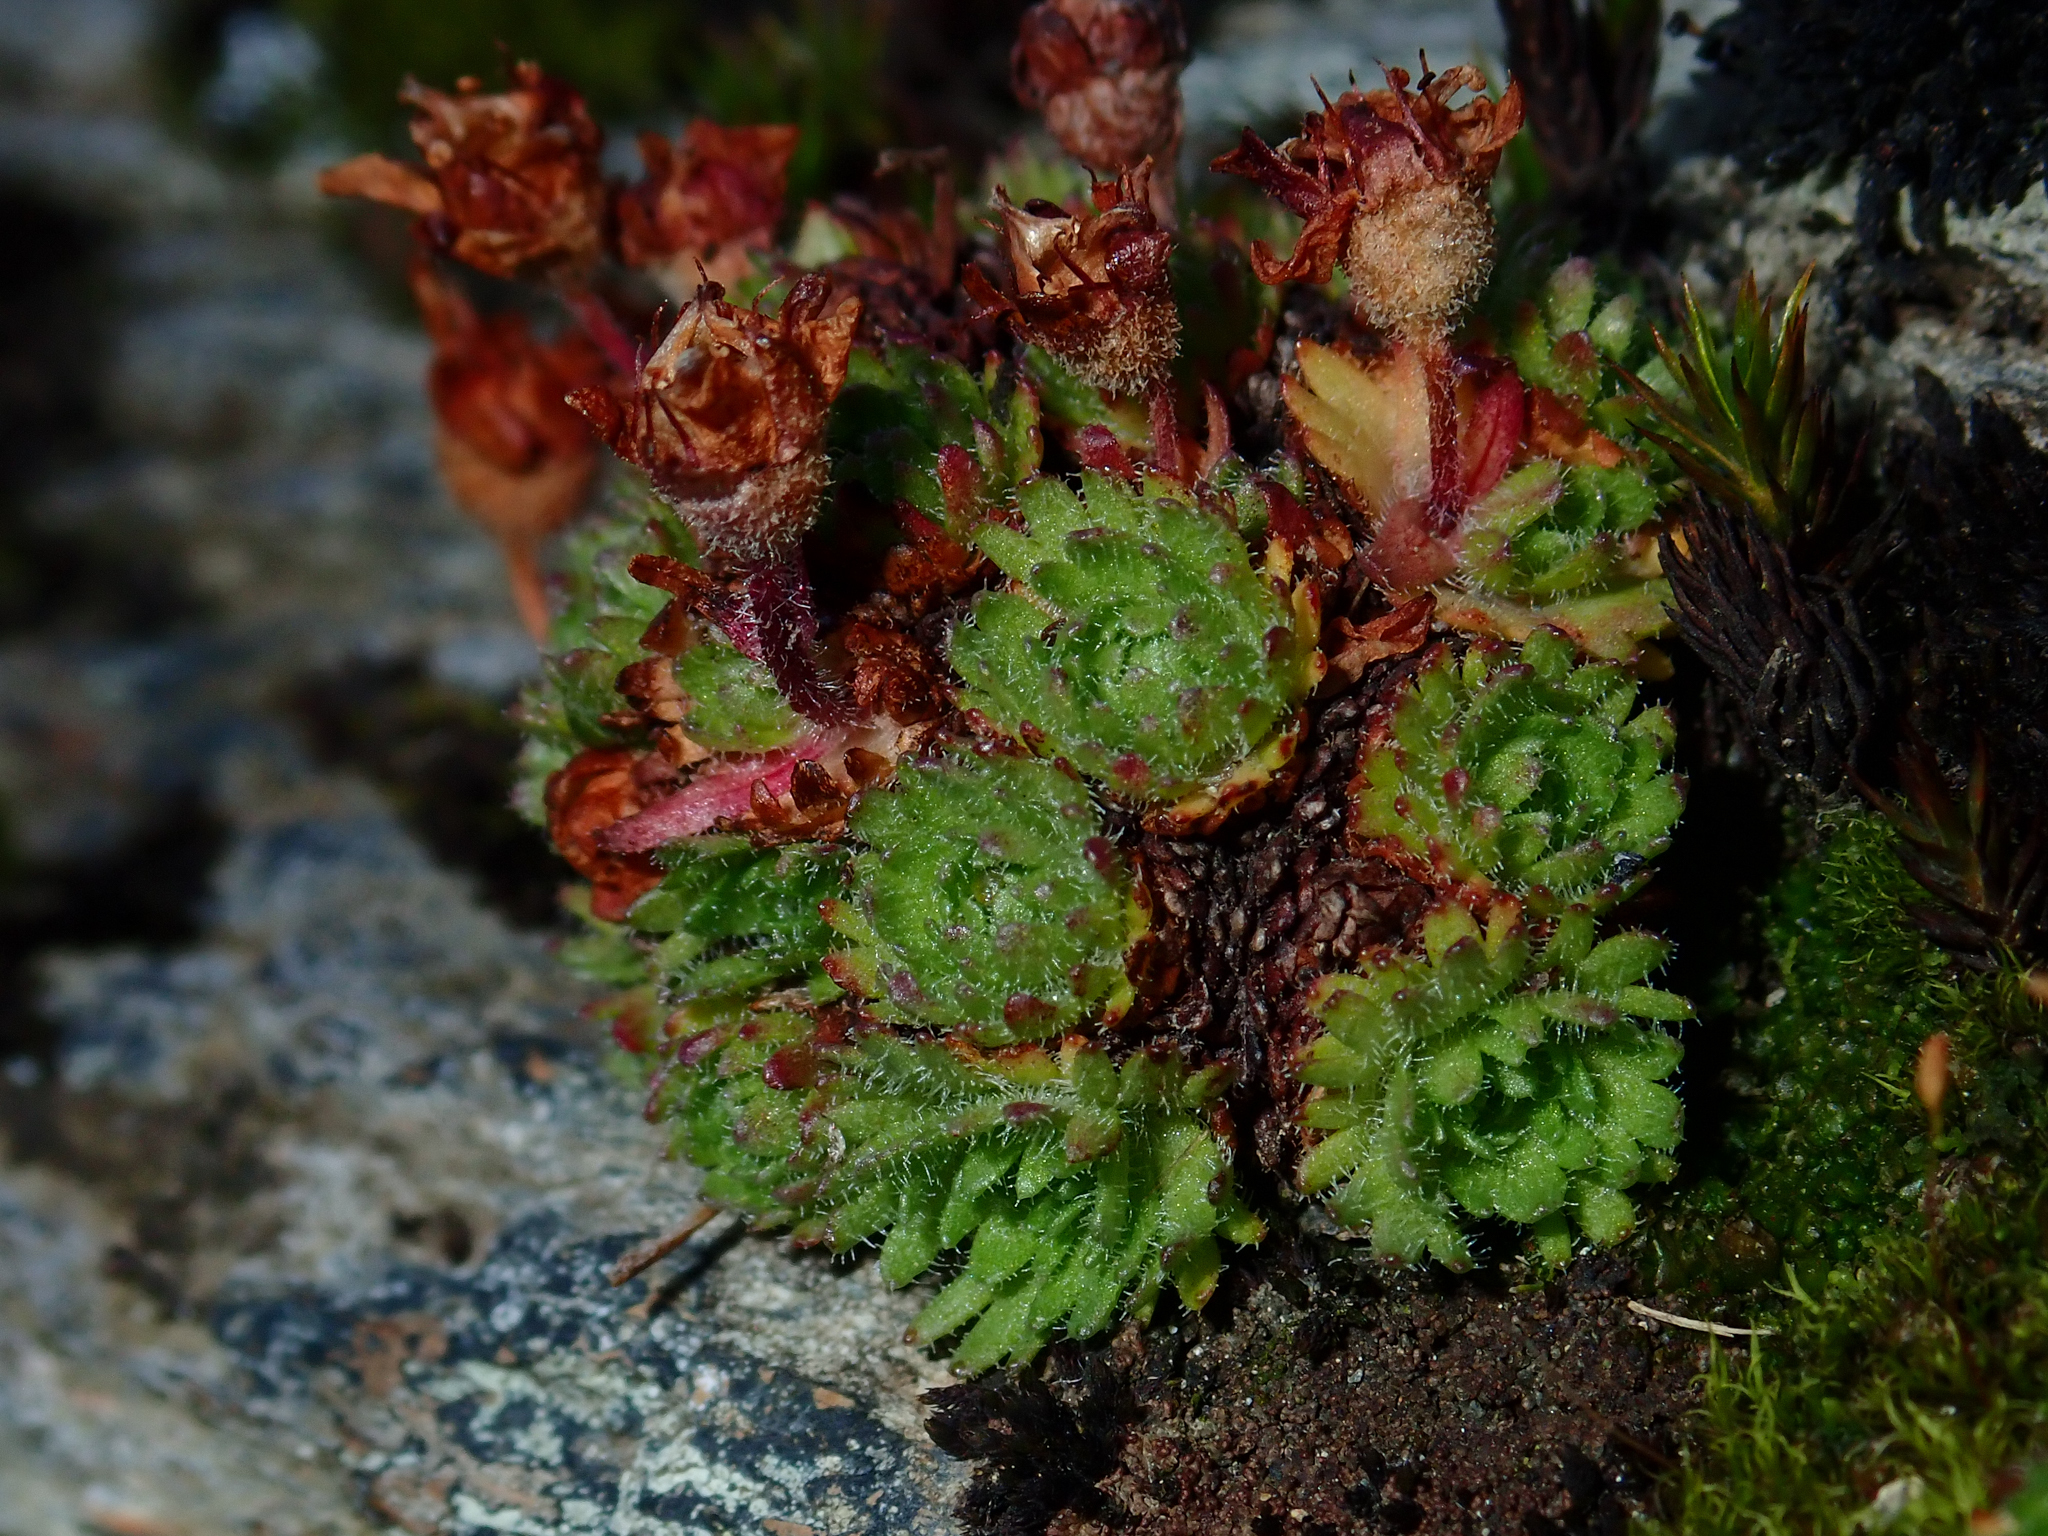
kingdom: Plantae
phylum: Tracheophyta
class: Magnoliopsida
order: Saxifragales
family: Saxifragaceae
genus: Saxifraga
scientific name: Saxifraga magellanica
